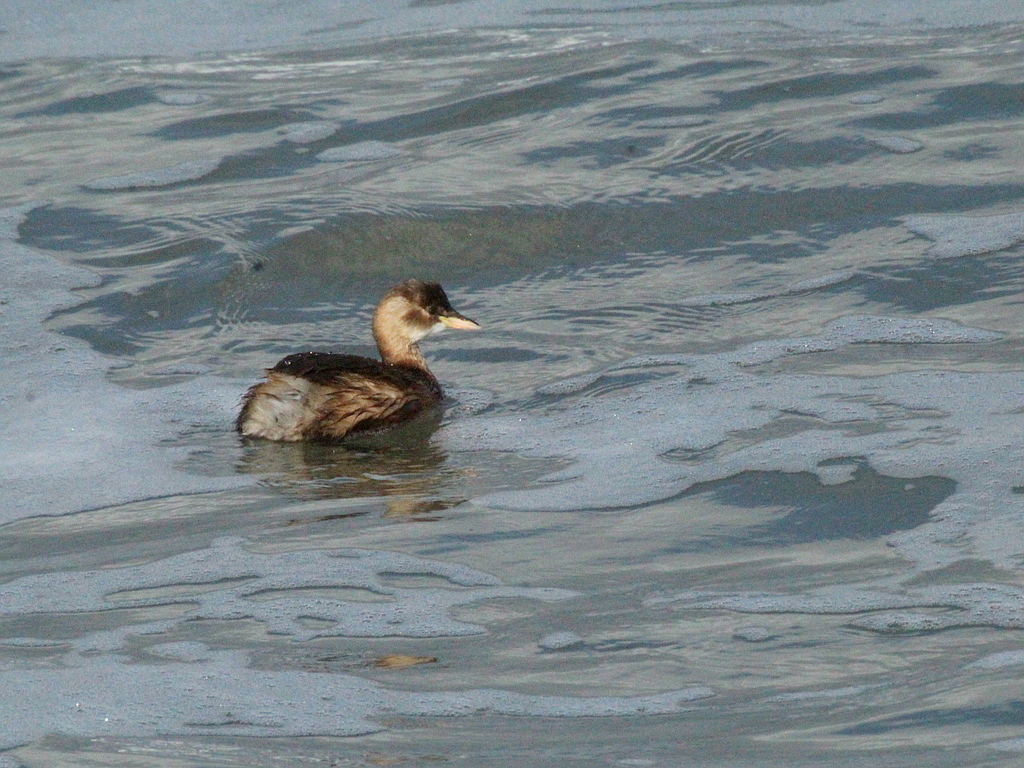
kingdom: Animalia
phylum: Chordata
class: Aves
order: Podicipediformes
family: Podicipedidae
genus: Tachybaptus
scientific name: Tachybaptus ruficollis
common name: Little grebe
